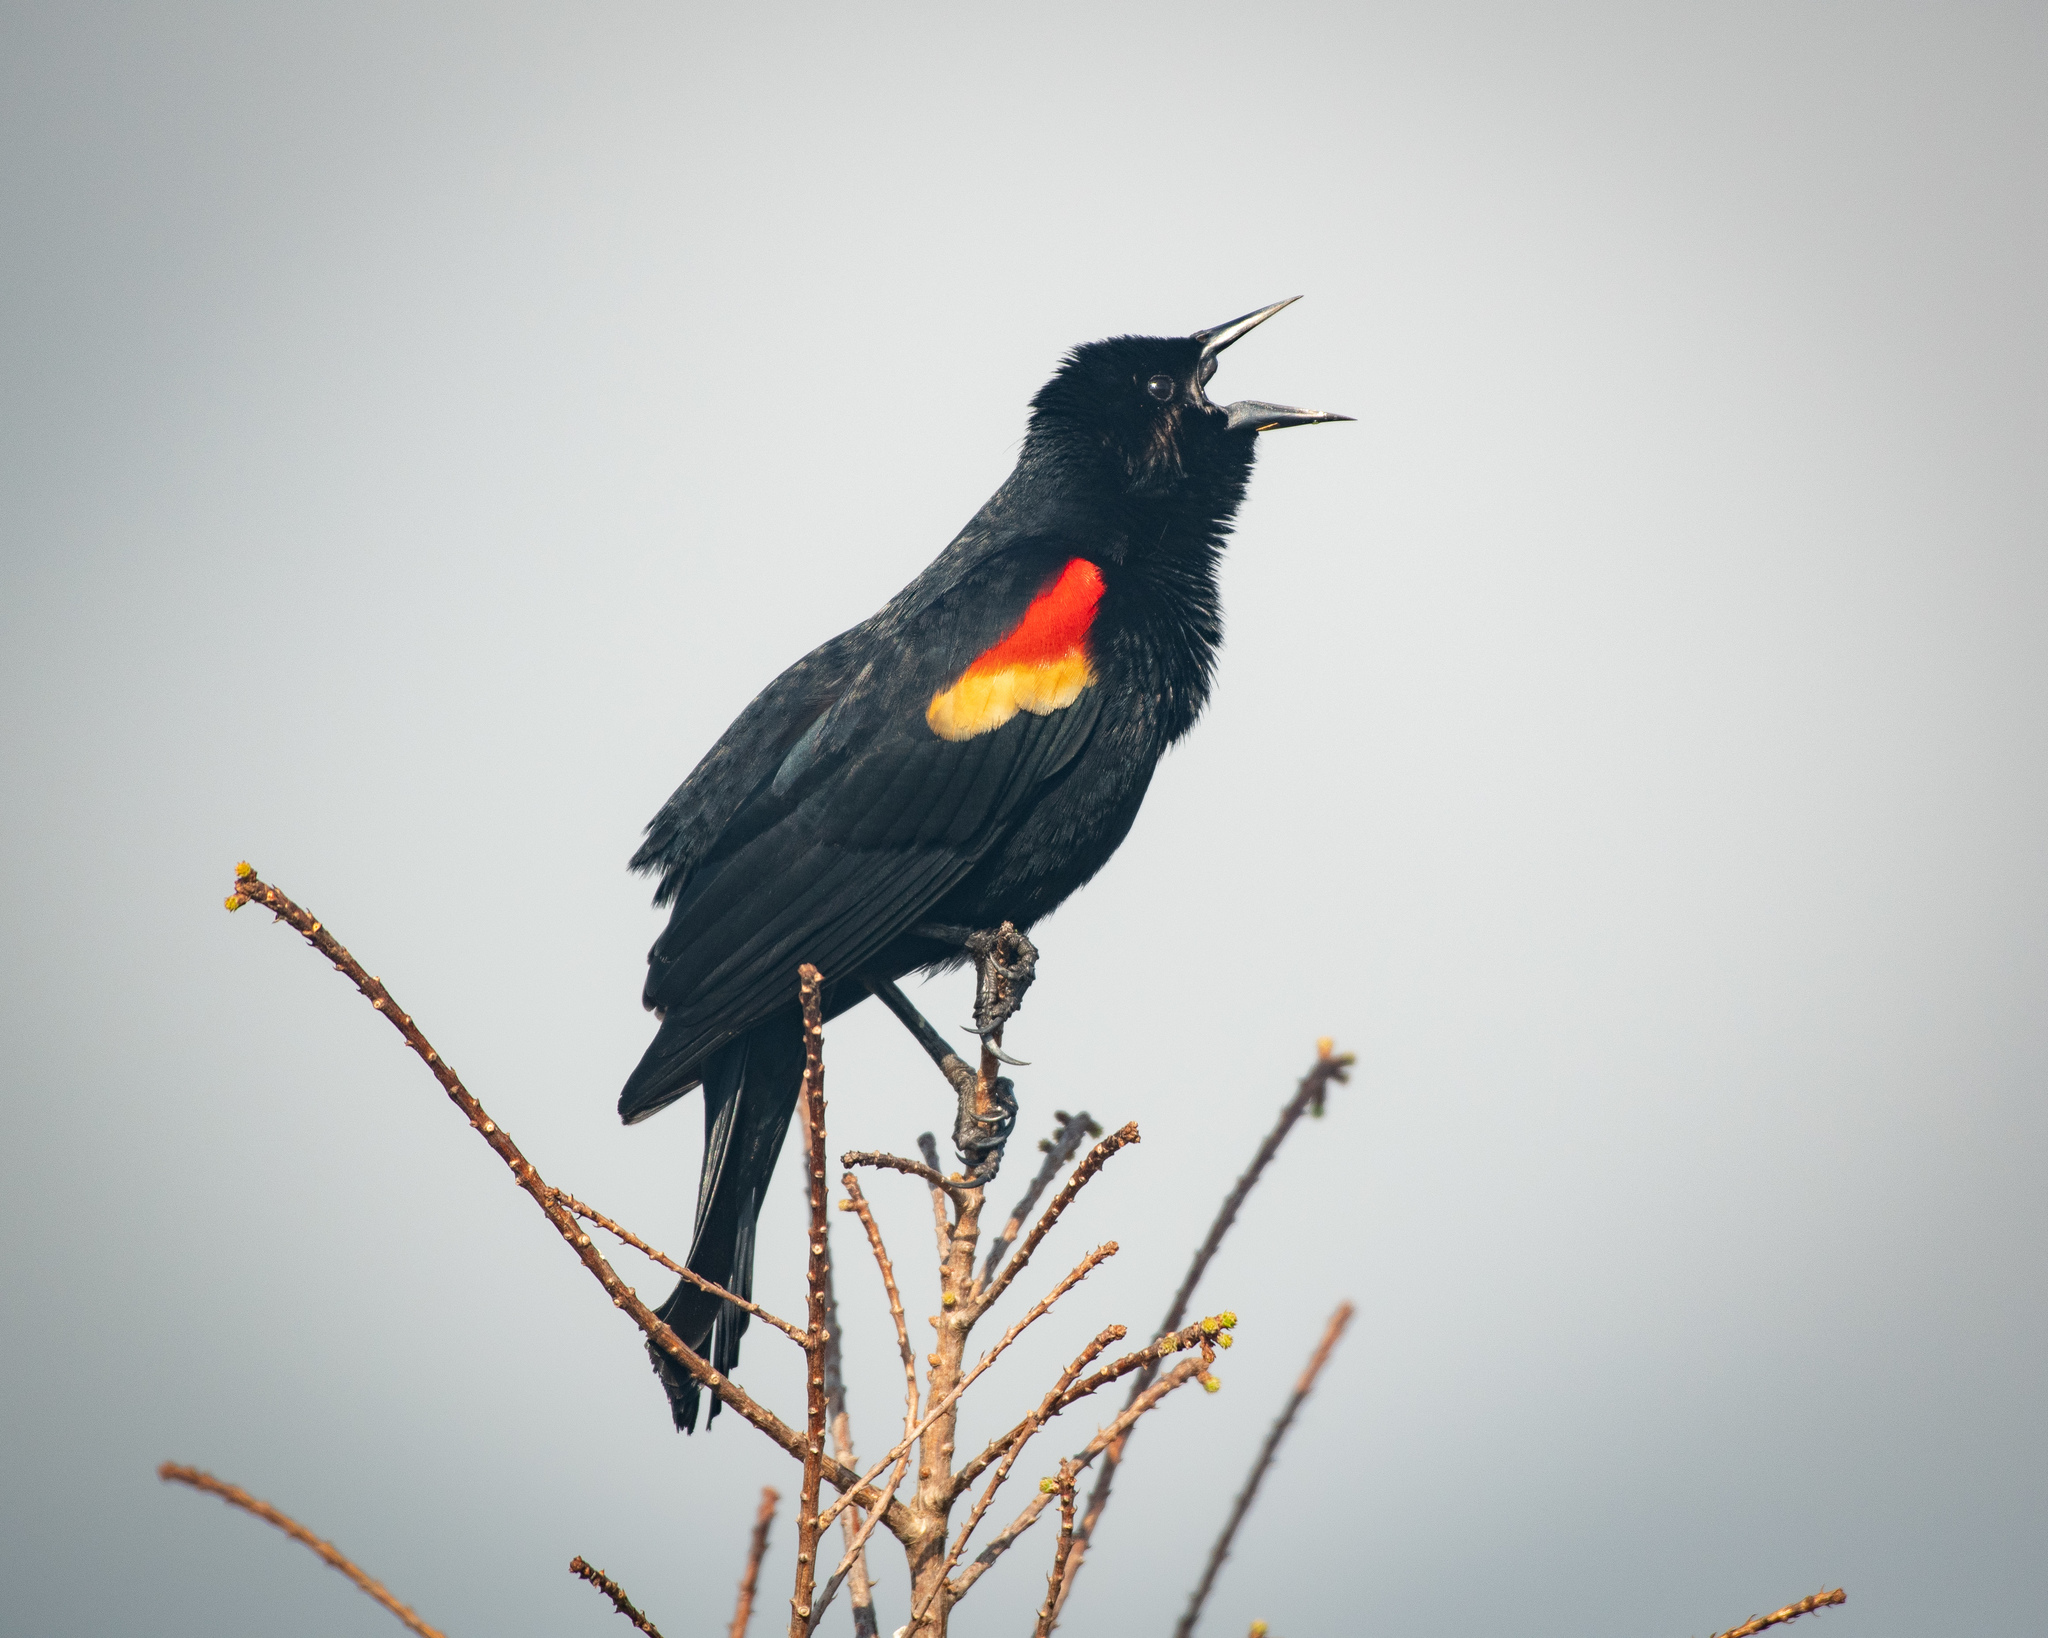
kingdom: Animalia
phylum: Chordata
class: Aves
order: Passeriformes
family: Icteridae
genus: Agelaius
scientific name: Agelaius phoeniceus
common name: Red-winged blackbird
